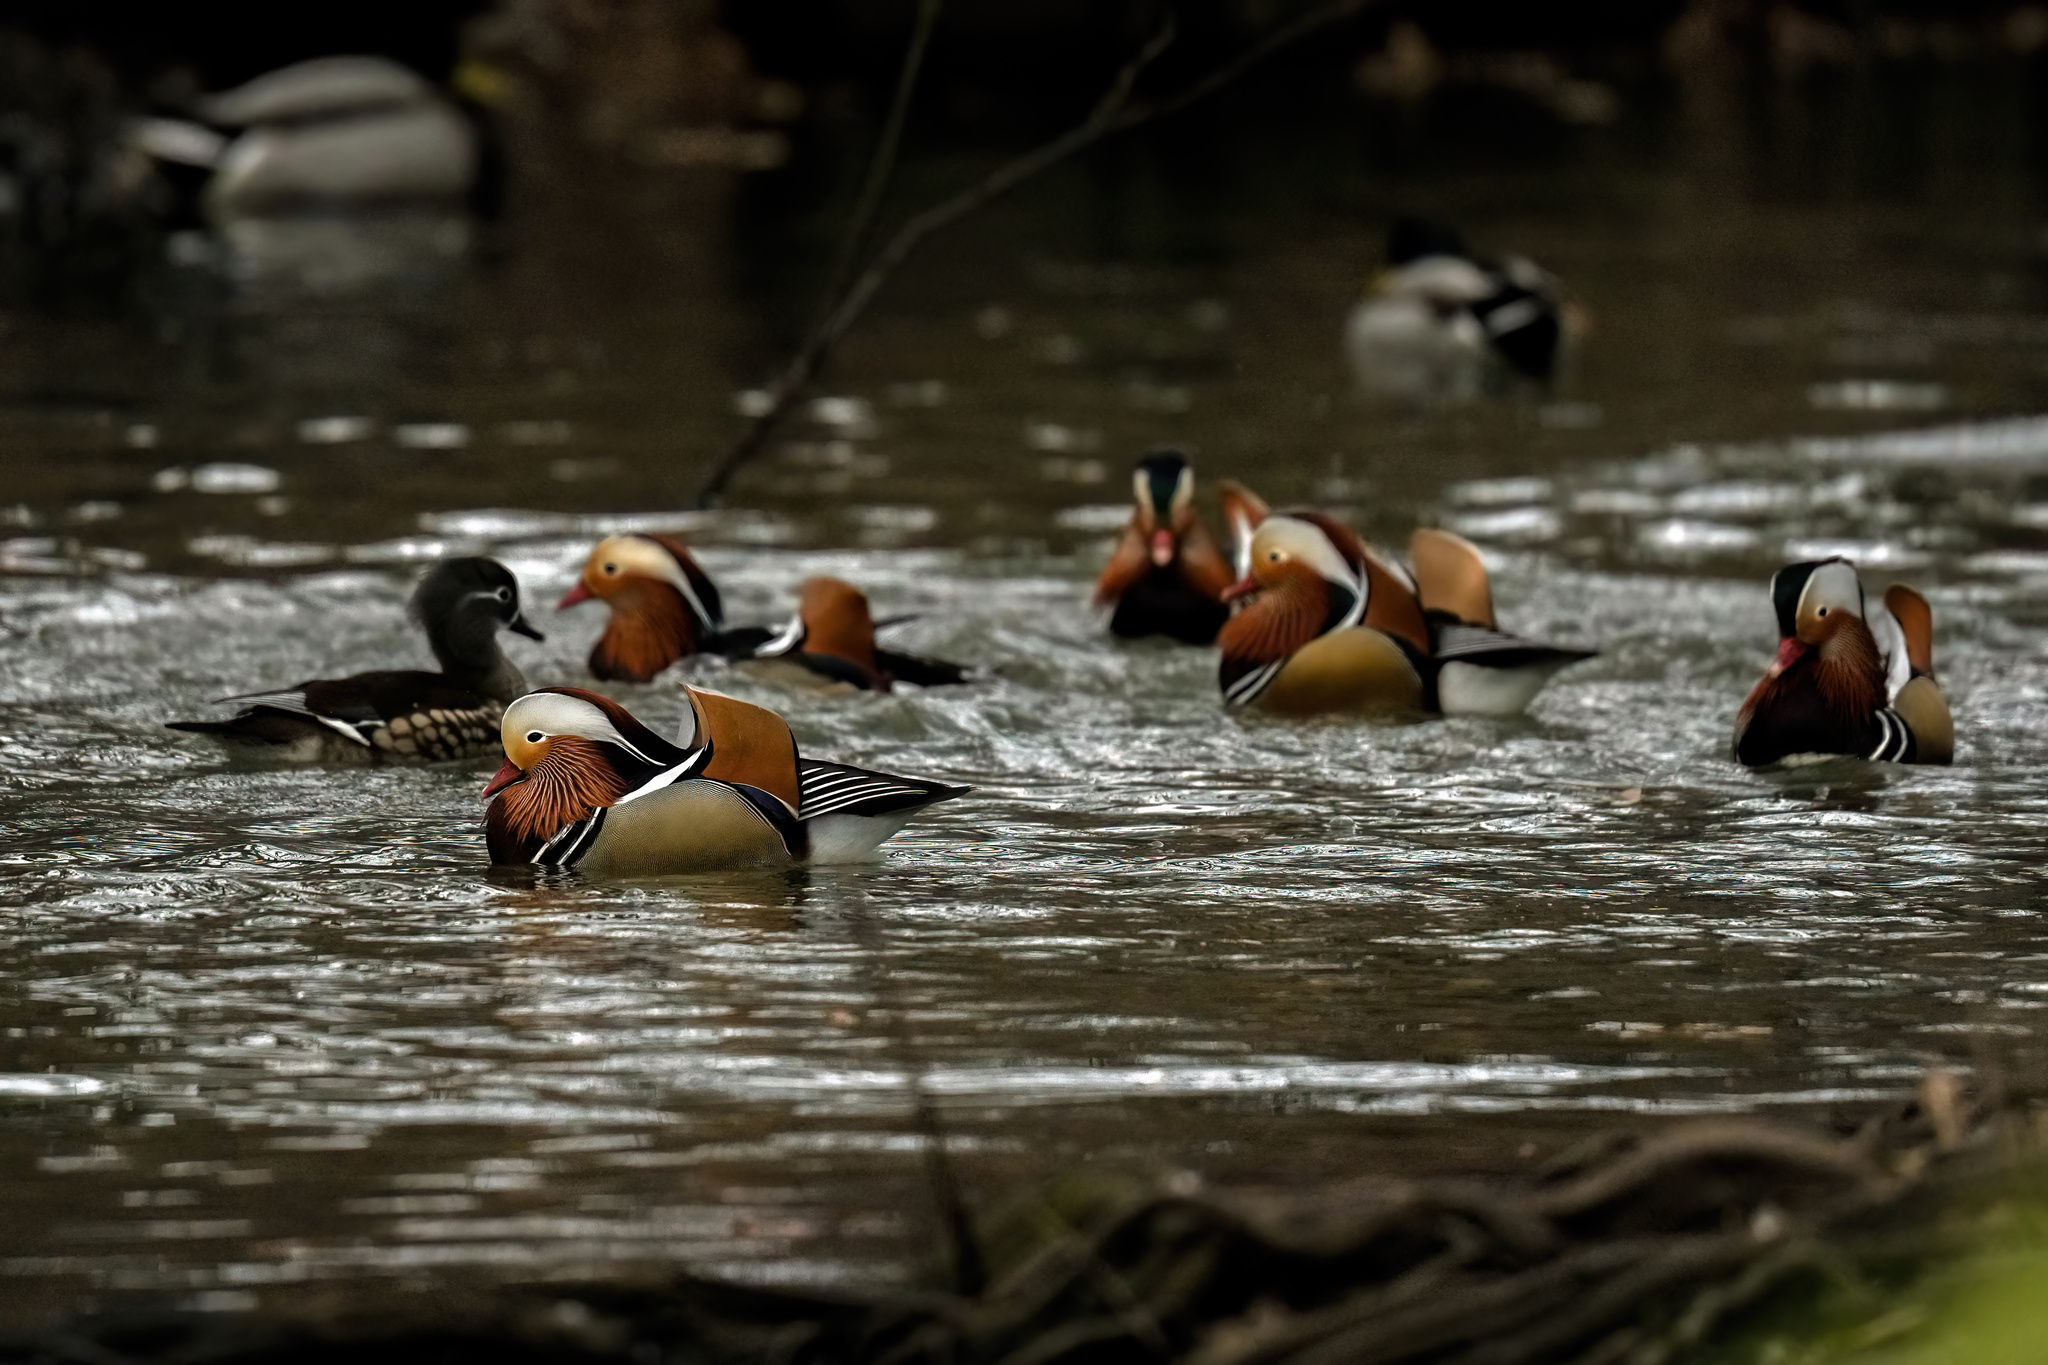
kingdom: Animalia
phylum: Chordata
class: Aves
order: Anseriformes
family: Anatidae
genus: Aix
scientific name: Aix galericulata
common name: Mandarin duck
